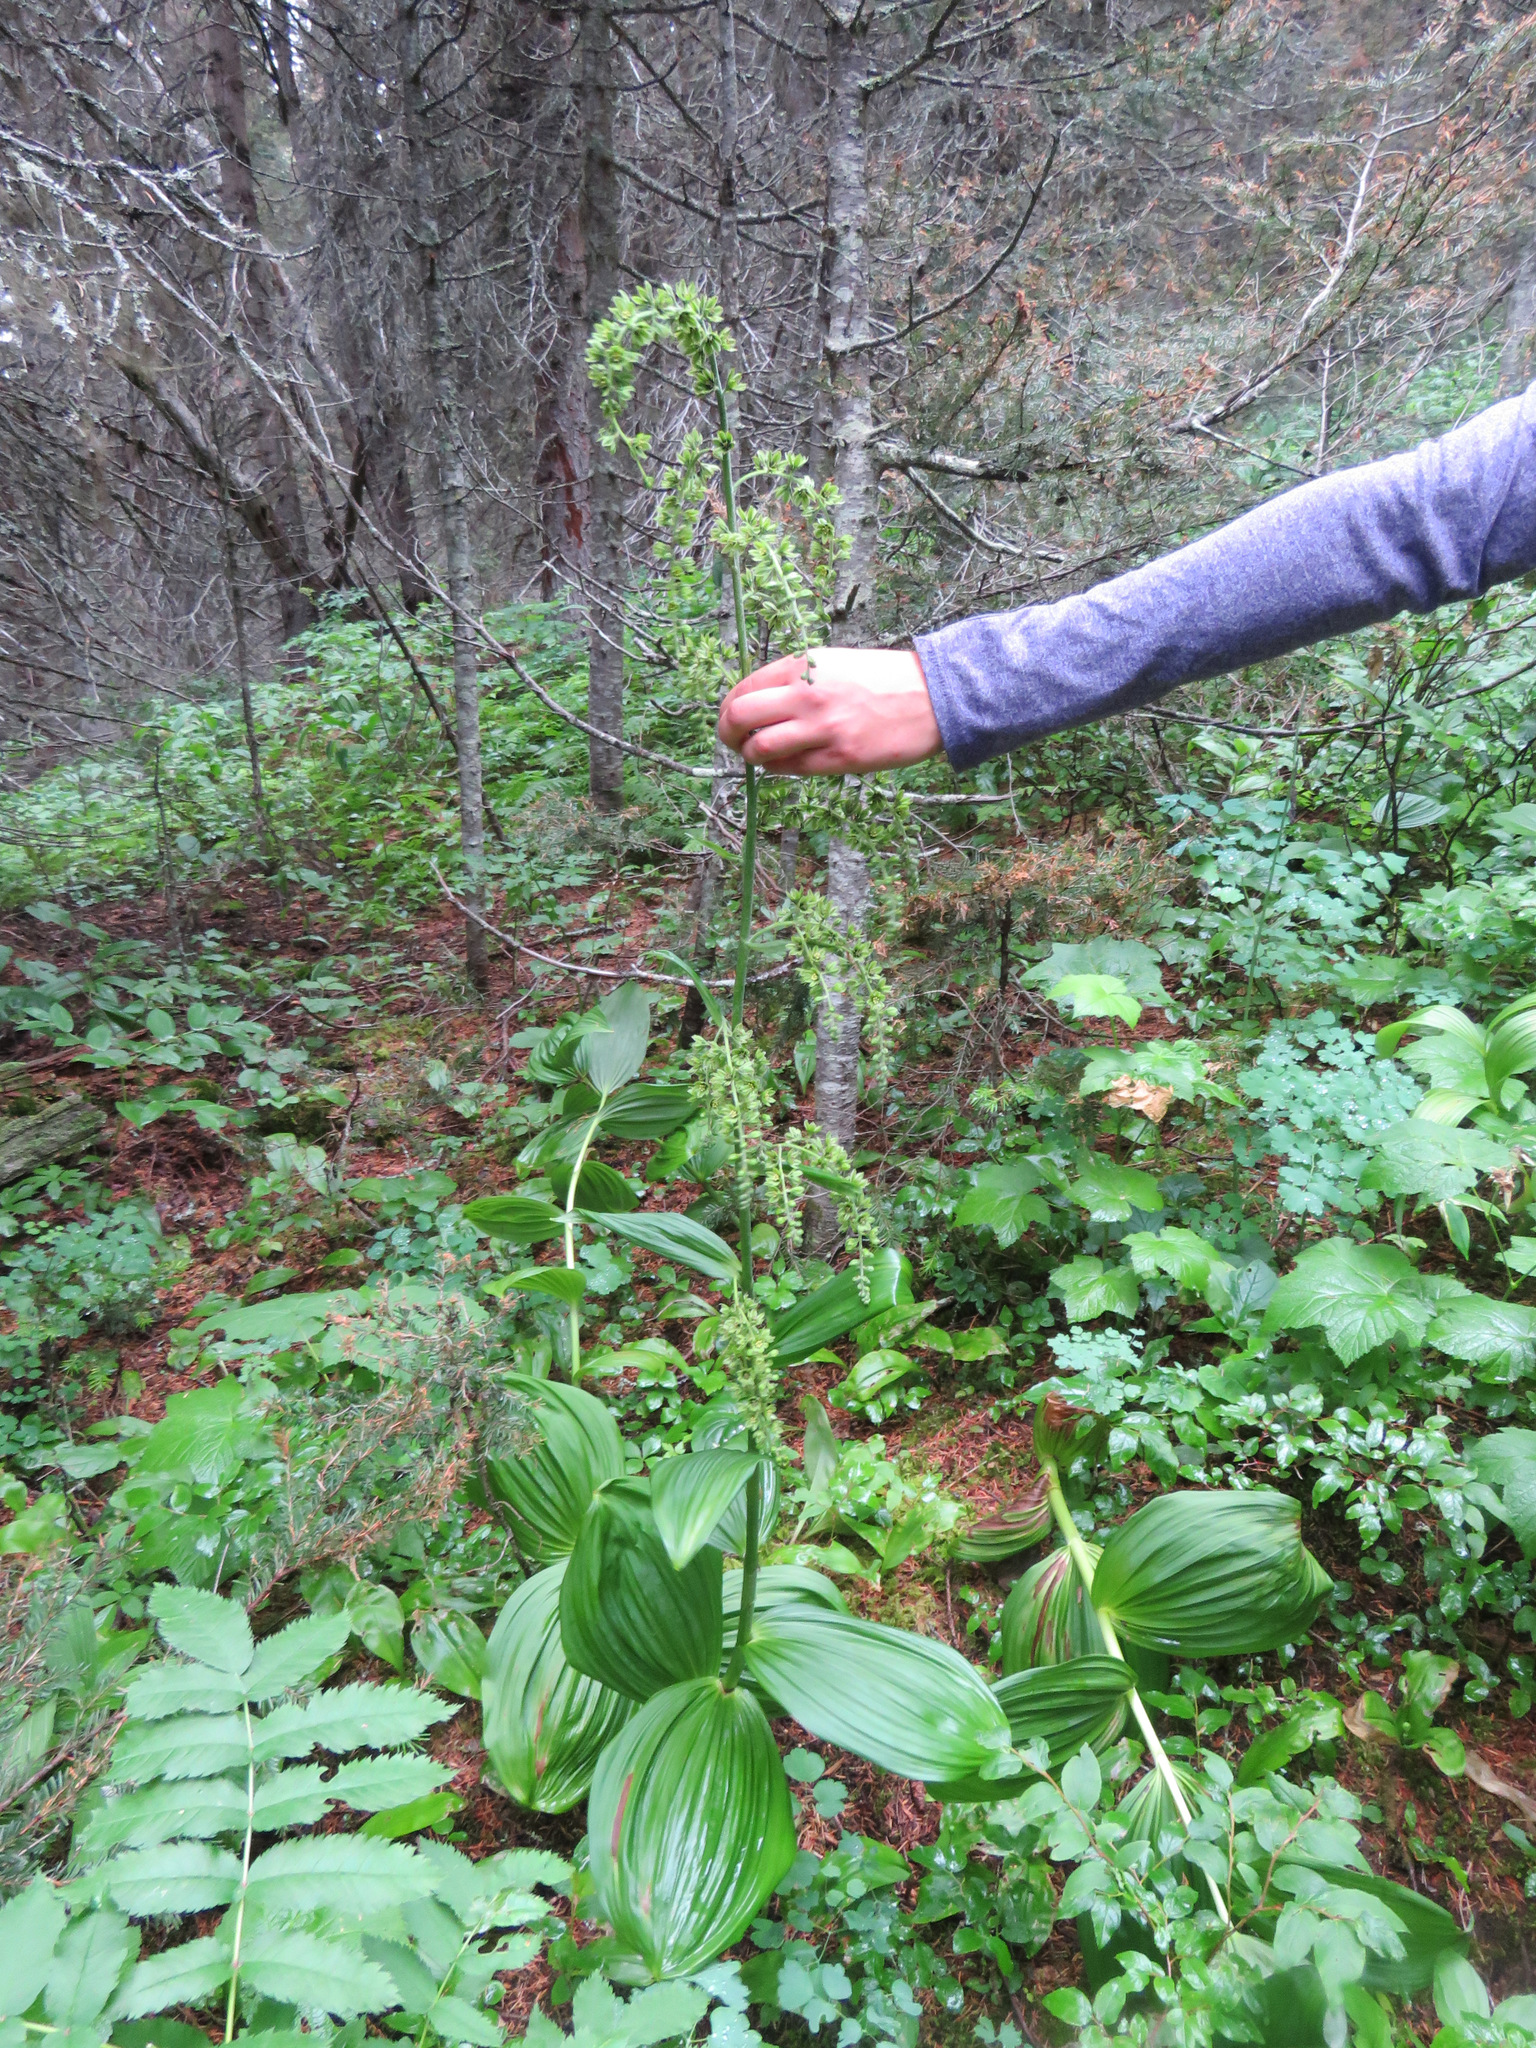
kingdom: Plantae
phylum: Tracheophyta
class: Liliopsida
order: Liliales
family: Melanthiaceae
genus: Veratrum
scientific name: Veratrum viride
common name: American false hellebore
